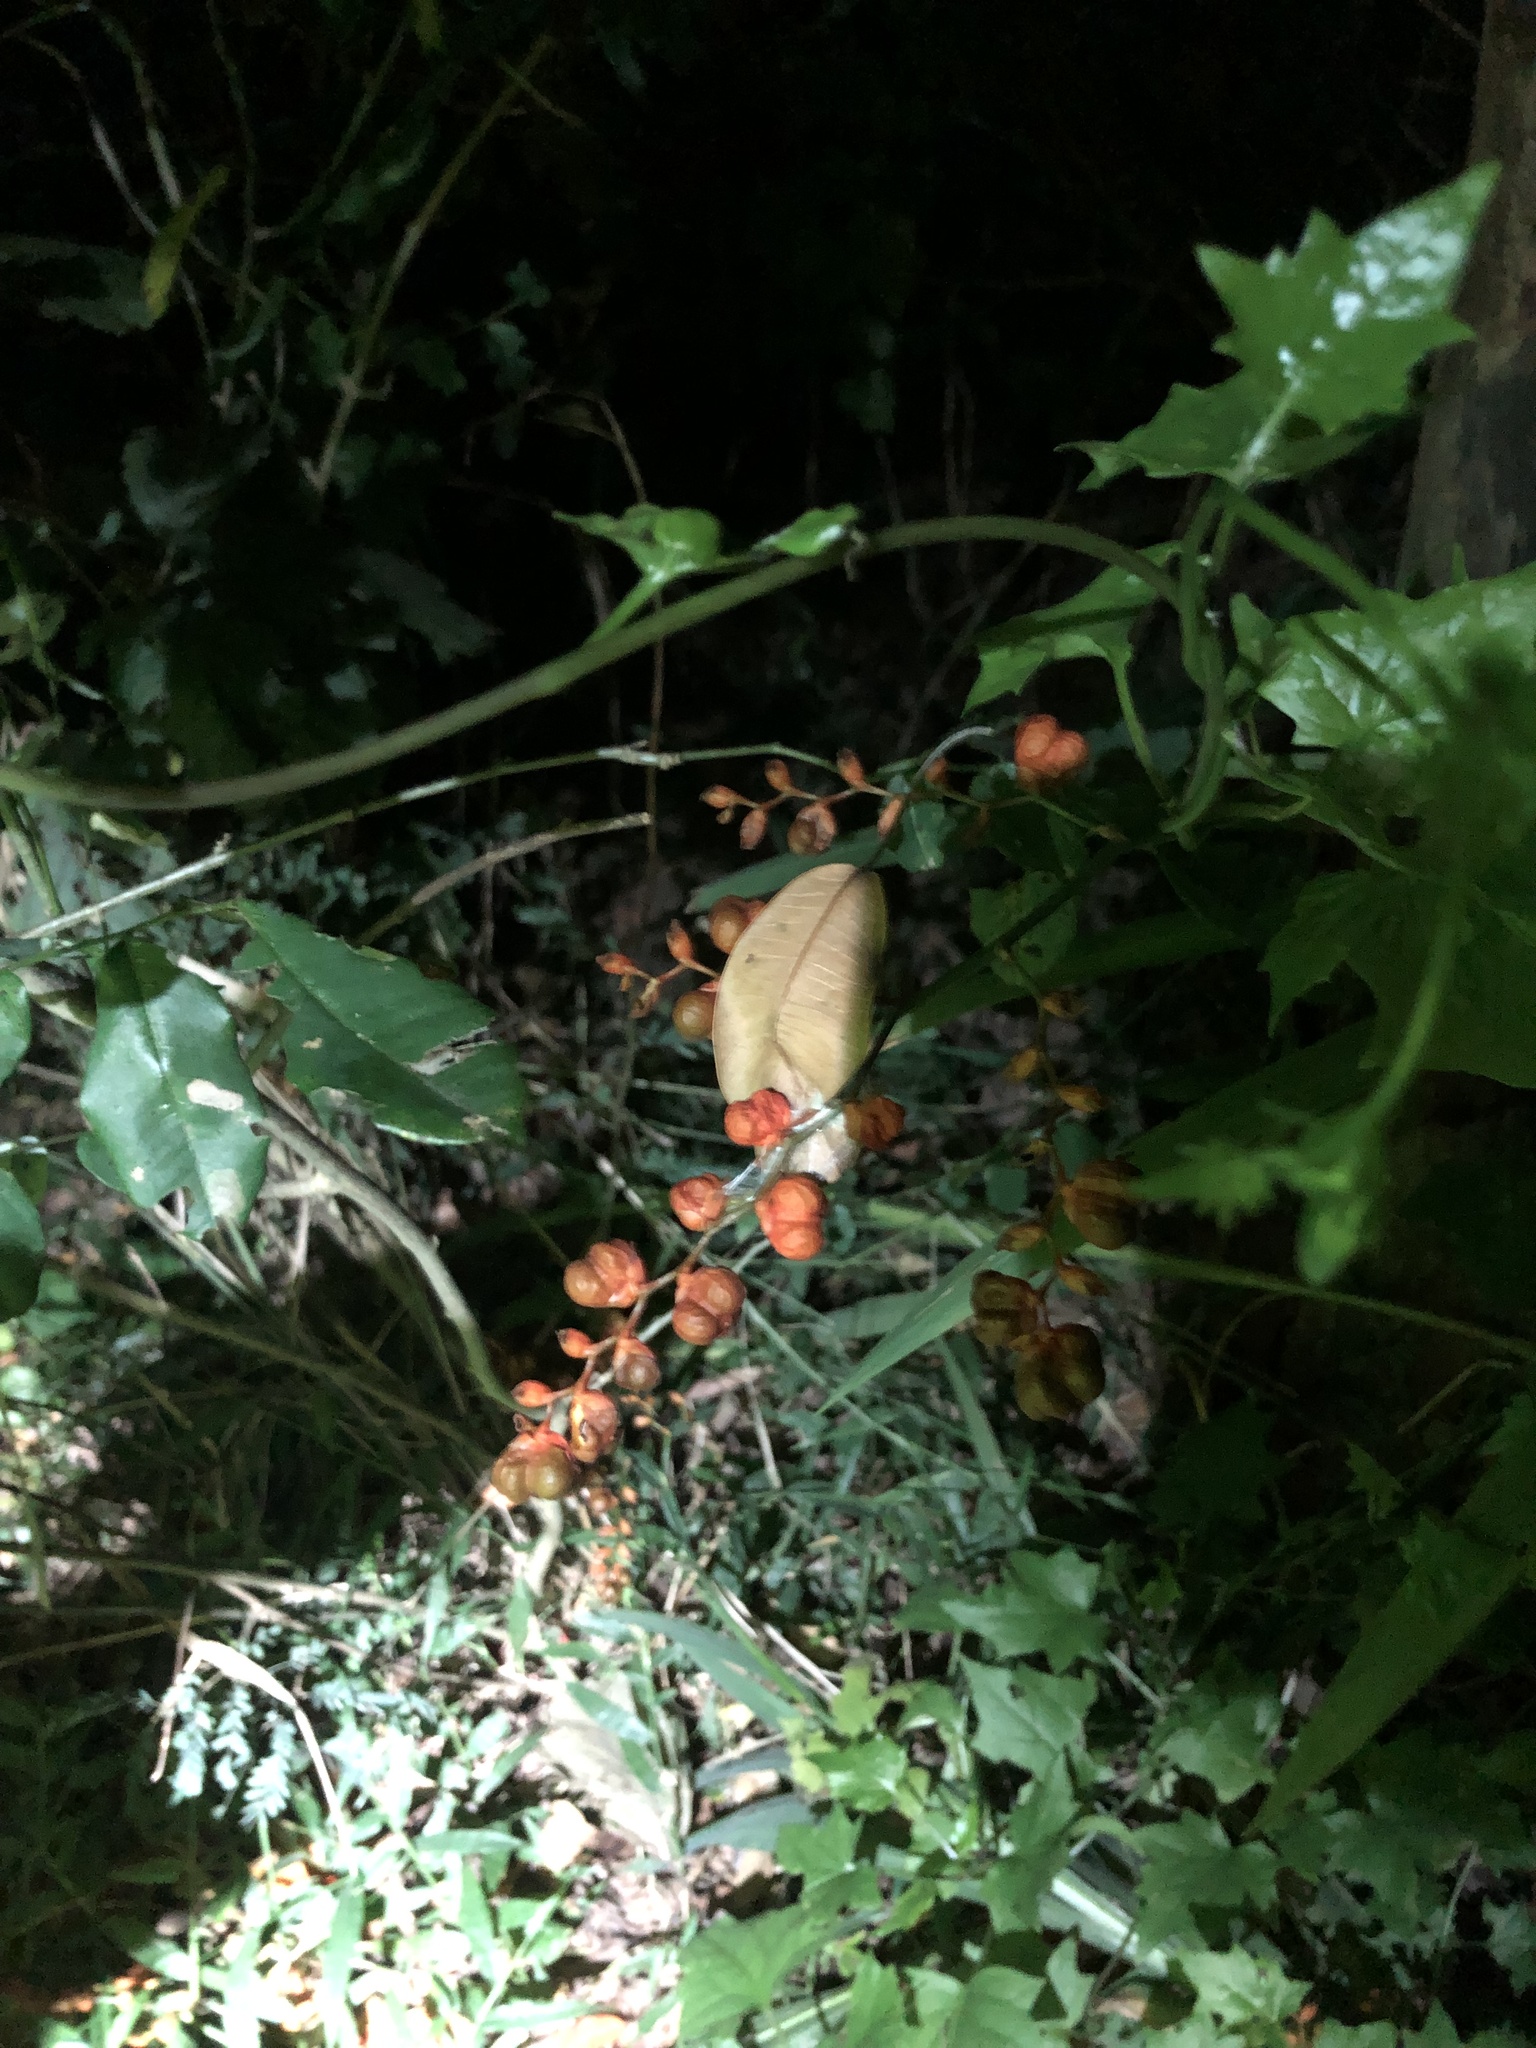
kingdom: Plantae
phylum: Tracheophyta
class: Liliopsida
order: Asparagales
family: Iridaceae
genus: Crocosmia
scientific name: Crocosmia aurea
